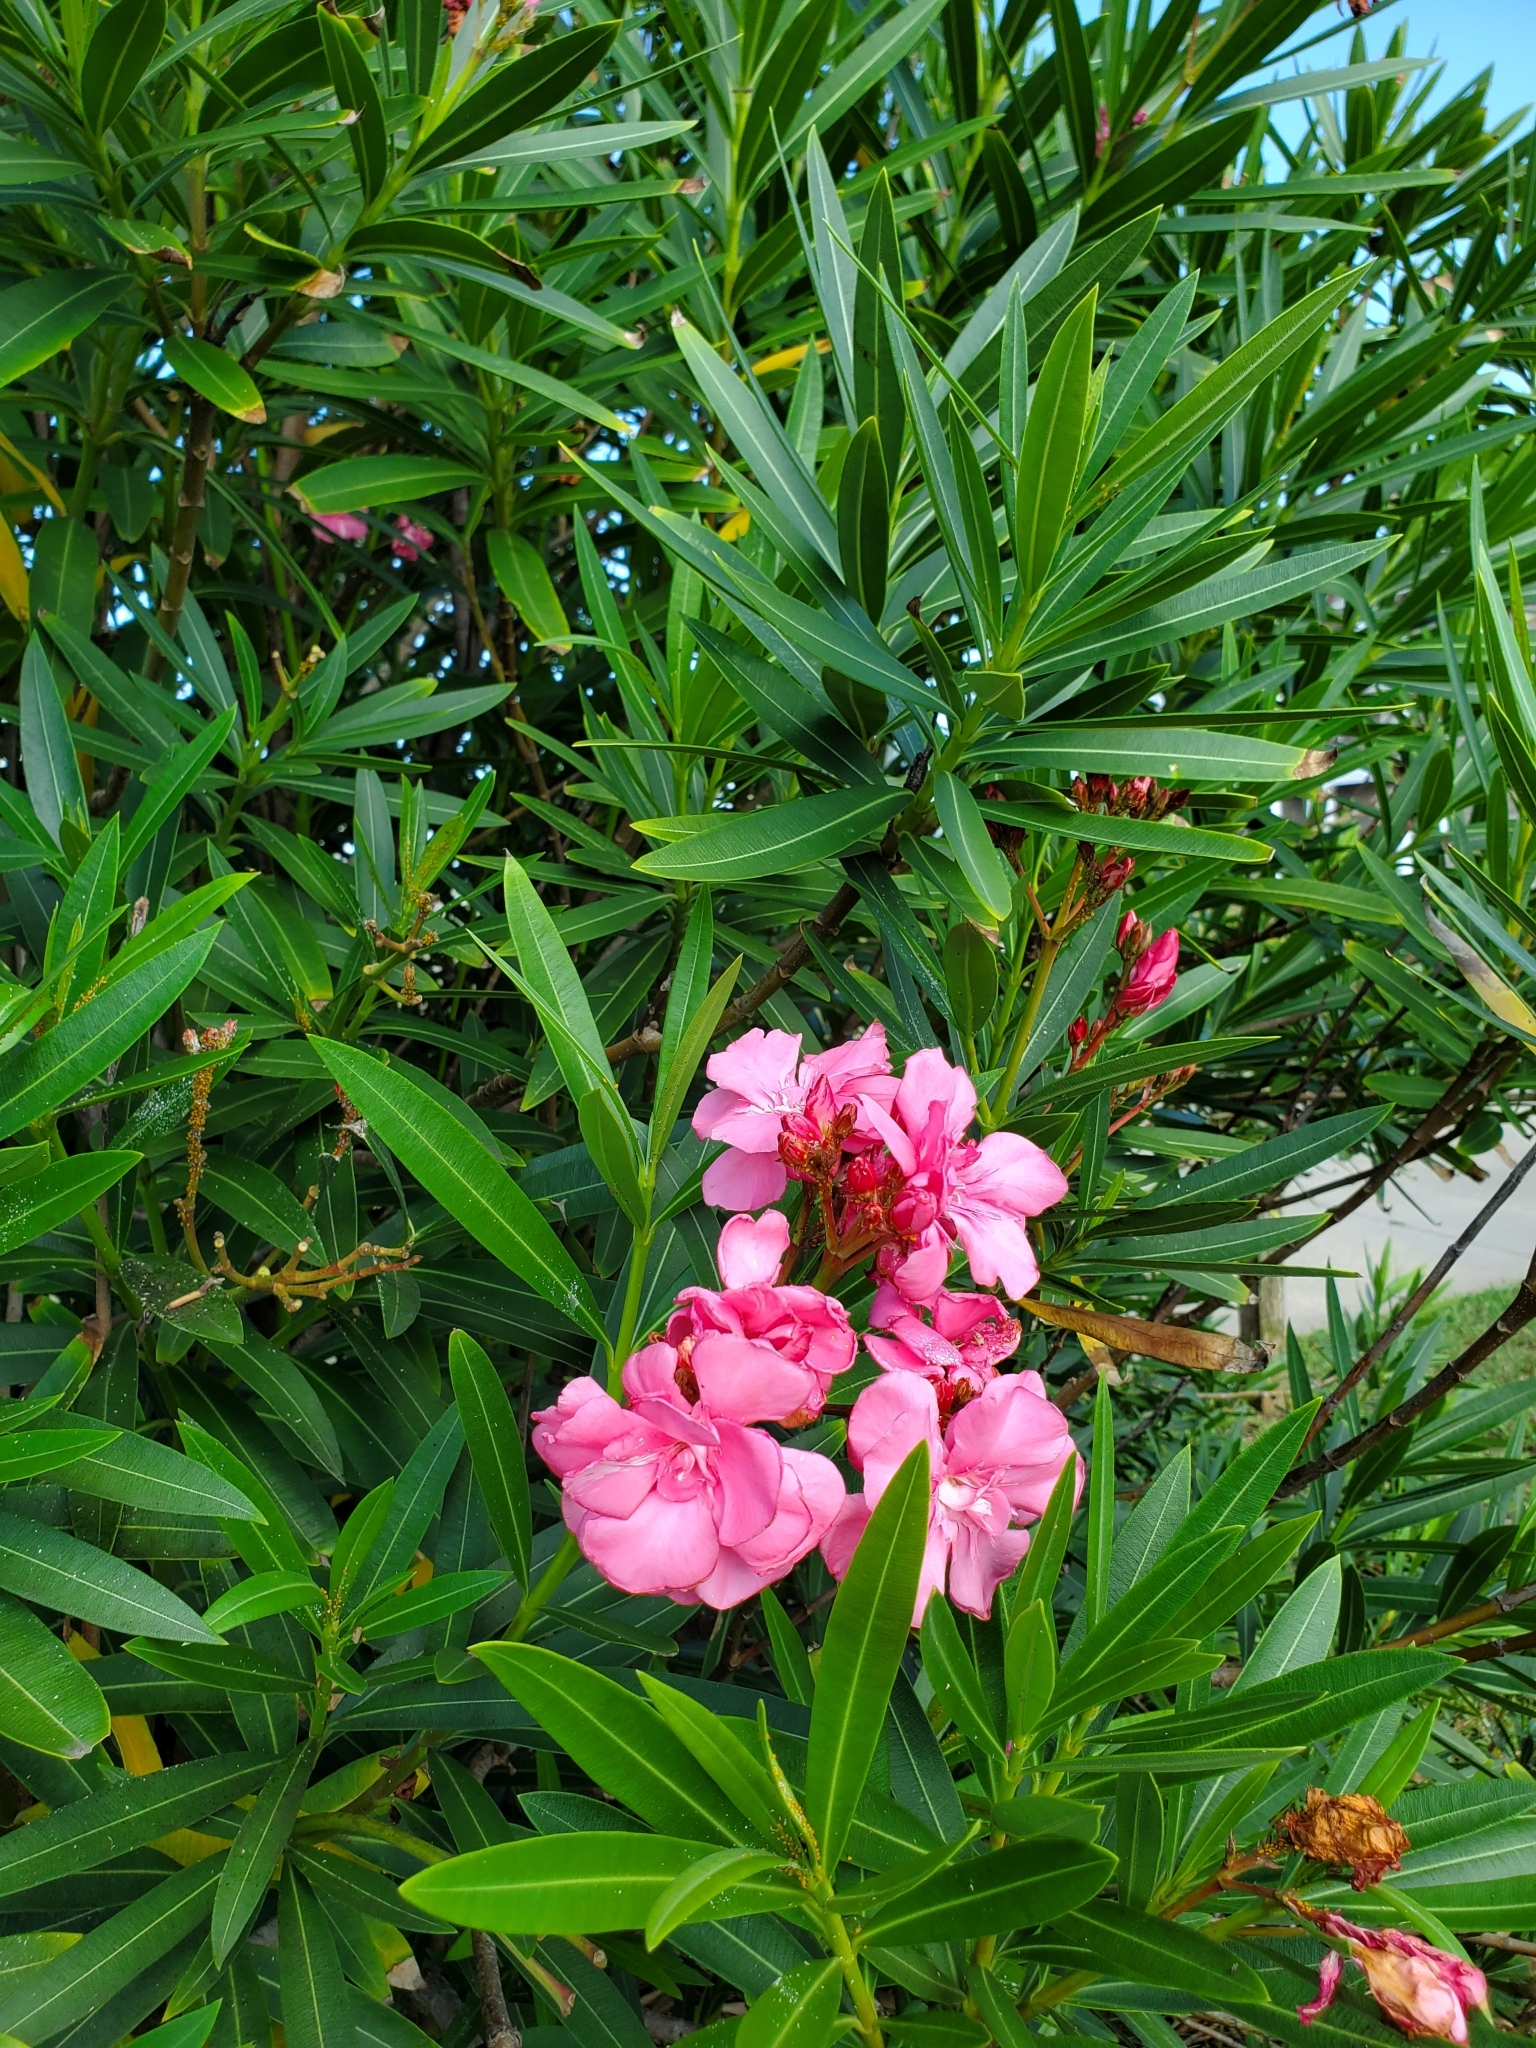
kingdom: Plantae
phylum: Tracheophyta
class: Magnoliopsida
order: Gentianales
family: Apocynaceae
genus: Nerium
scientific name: Nerium oleander
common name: Oleander
